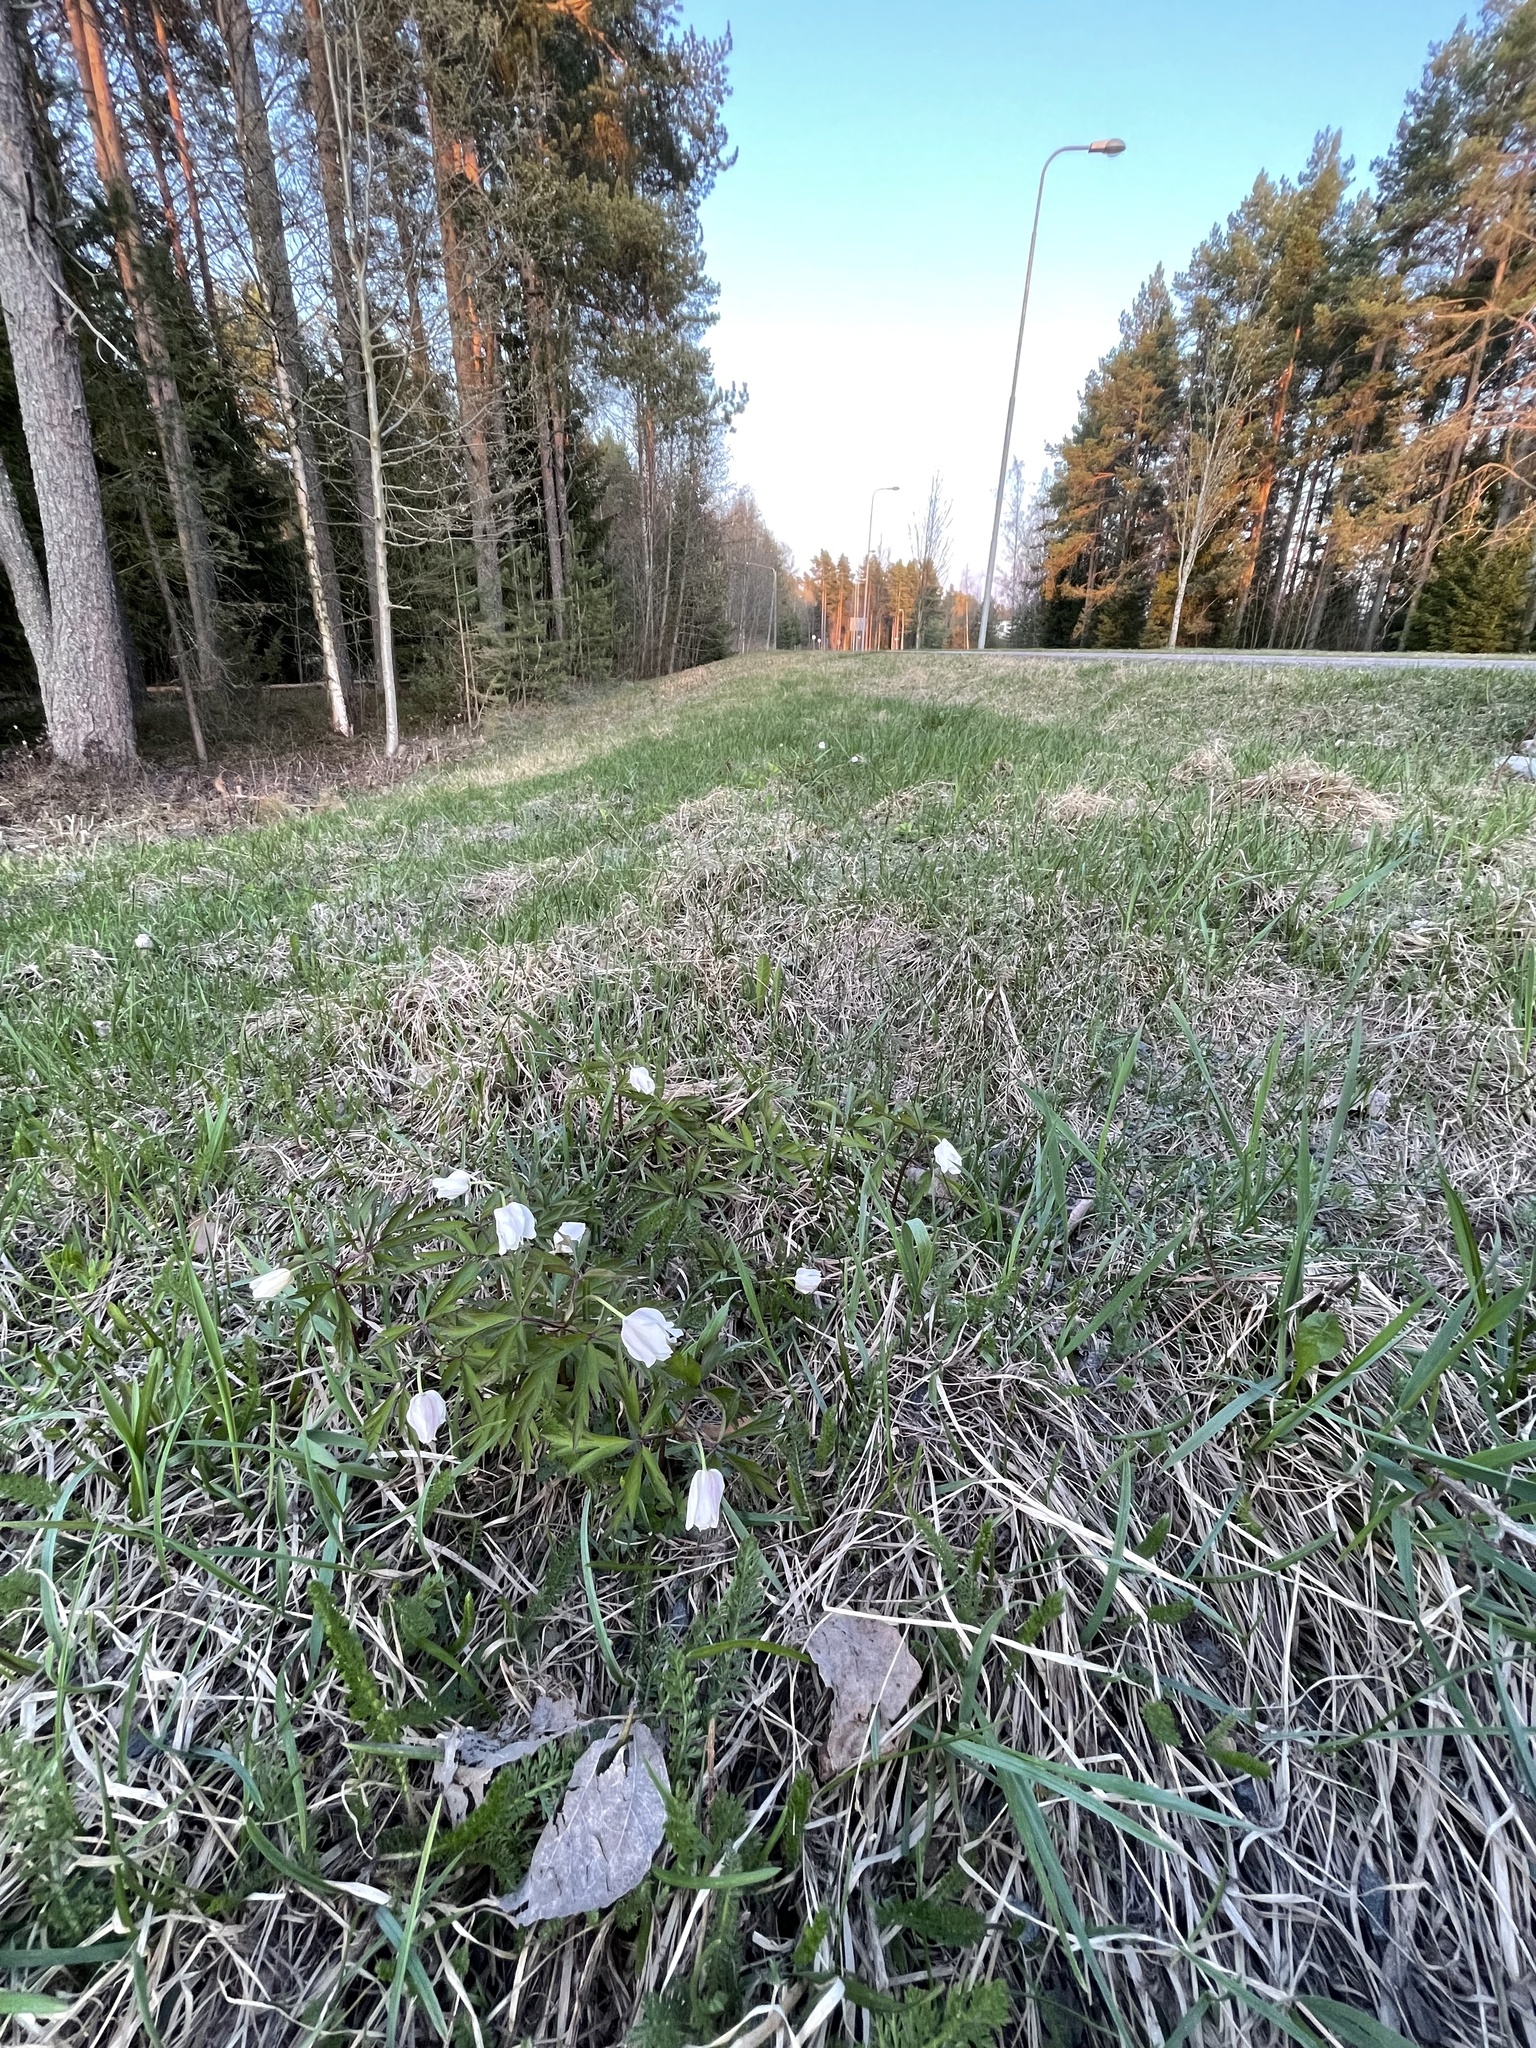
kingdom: Plantae
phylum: Tracheophyta
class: Magnoliopsida
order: Ranunculales
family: Ranunculaceae
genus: Anemone
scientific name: Anemone nemorosa
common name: Wood anemone
